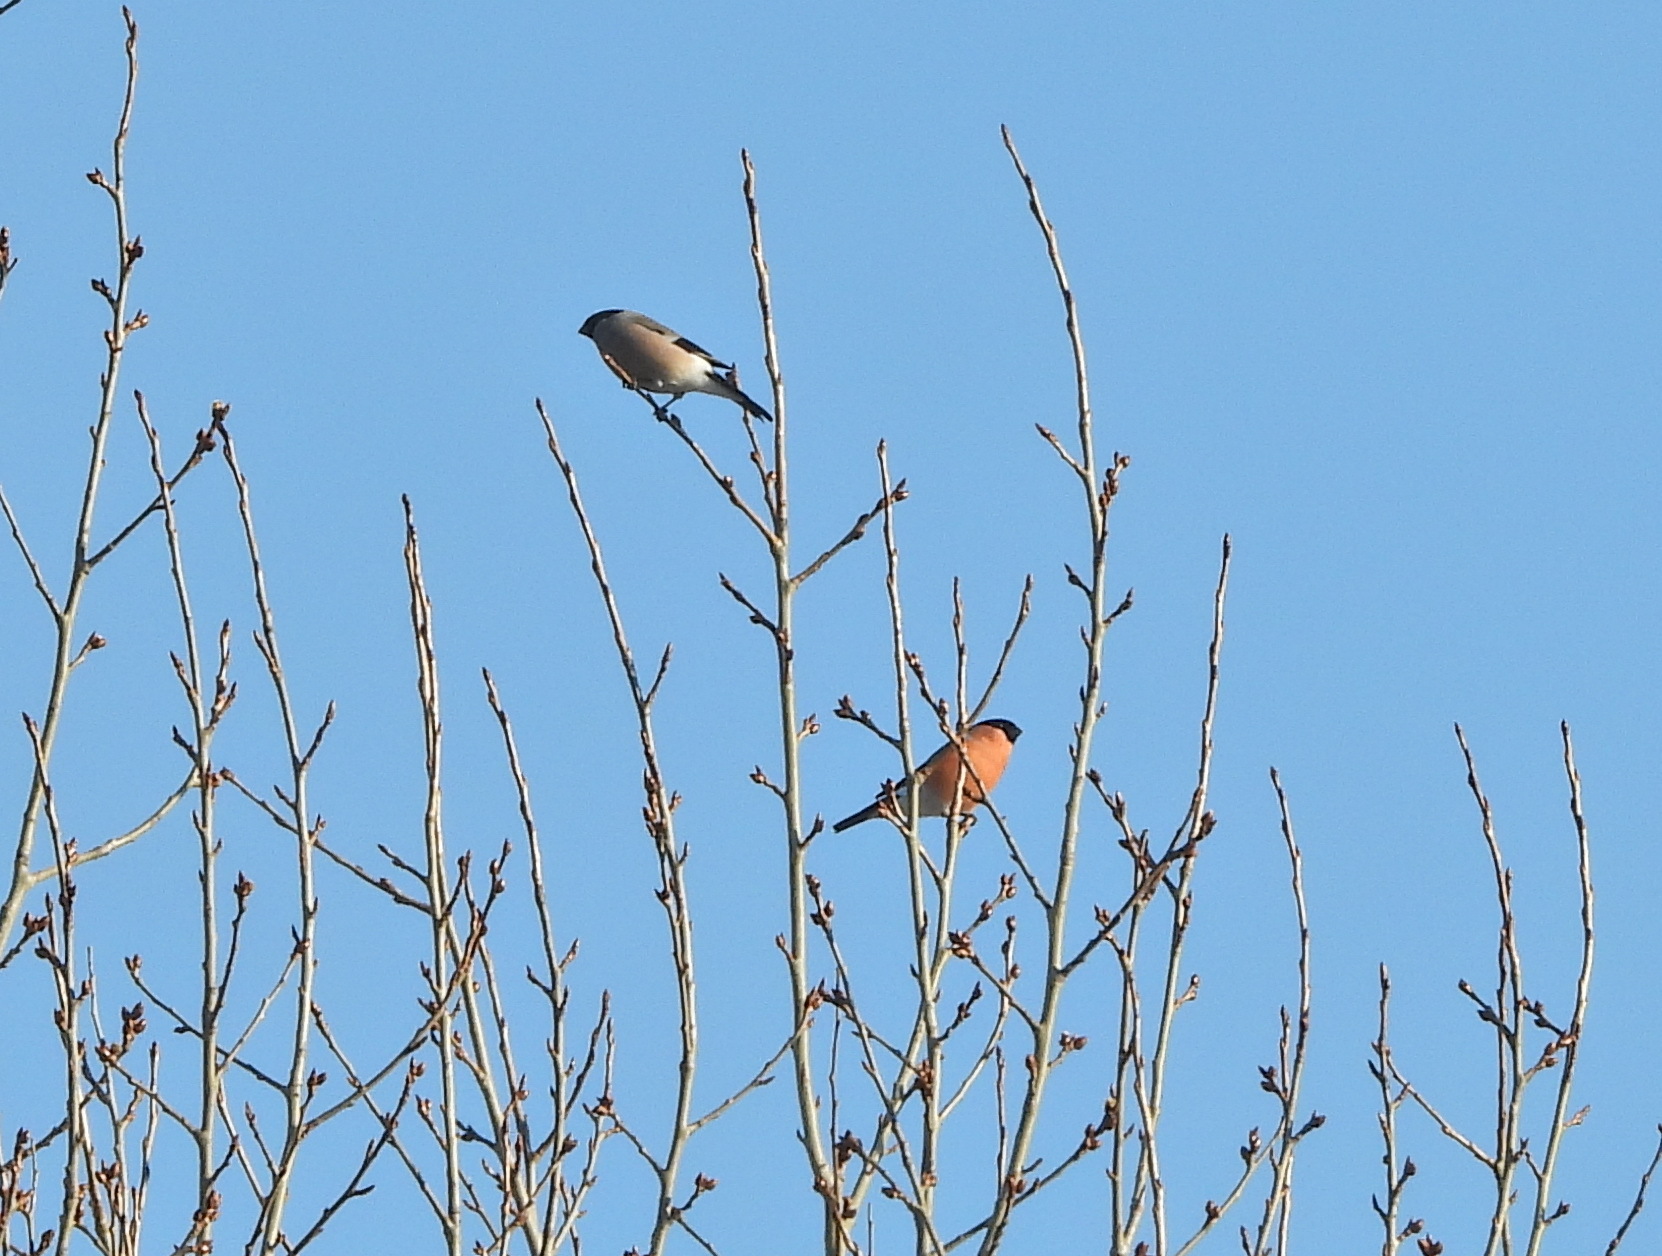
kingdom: Animalia
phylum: Chordata
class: Aves
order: Passeriformes
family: Fringillidae
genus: Pyrrhula
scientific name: Pyrrhula pyrrhula
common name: Eurasian bullfinch
